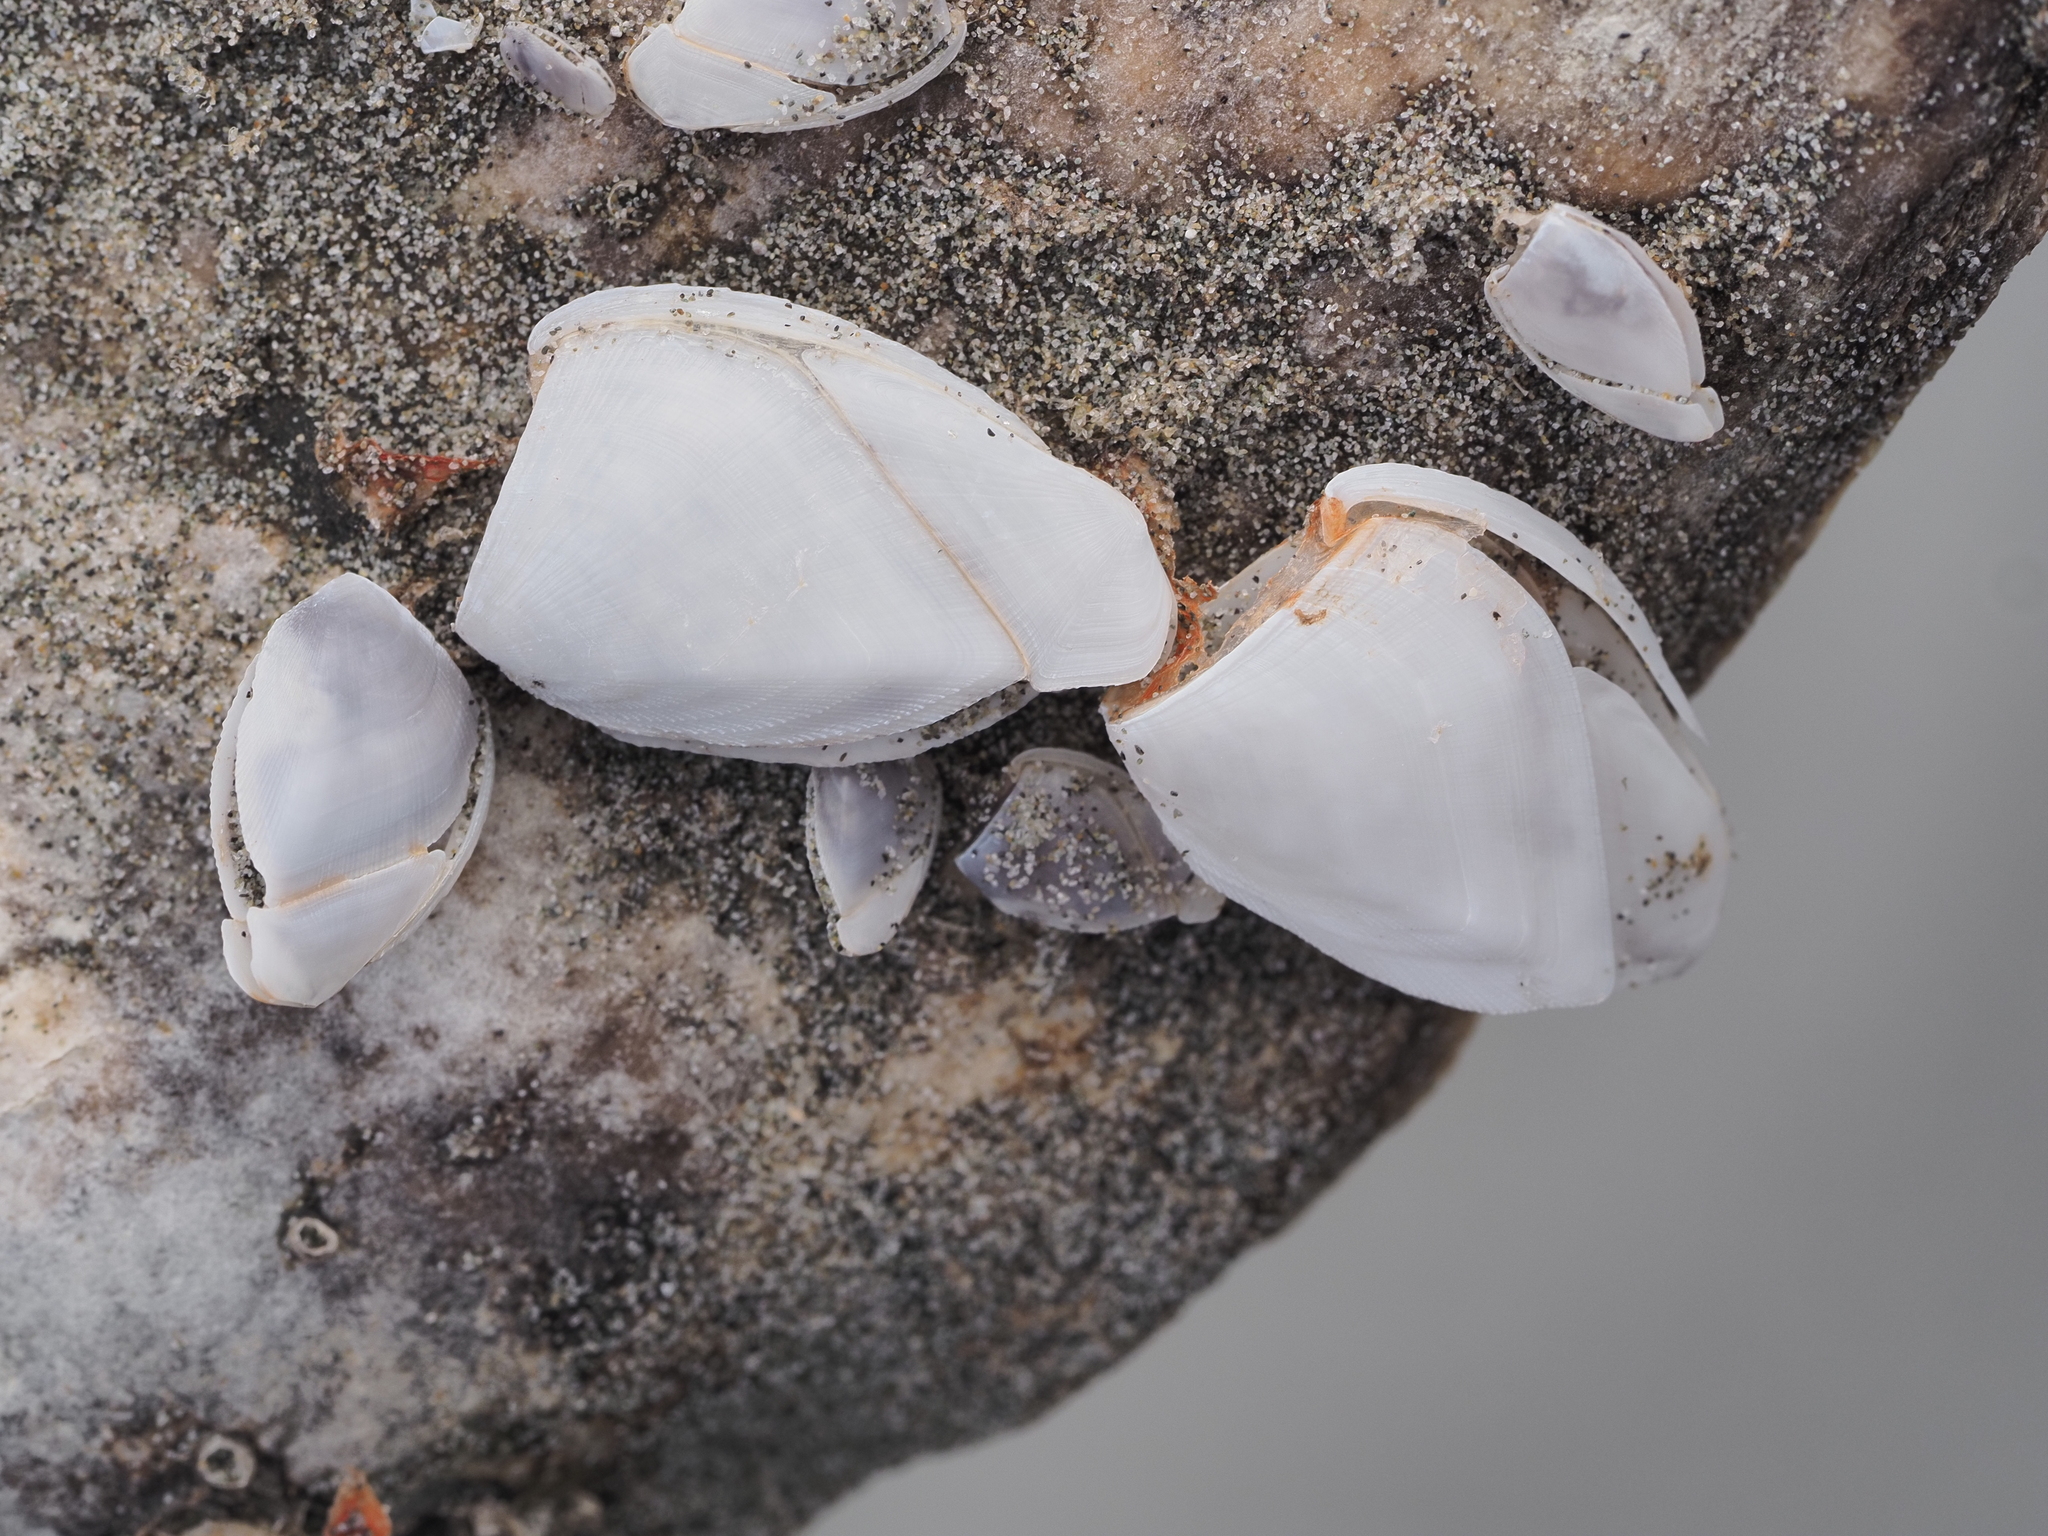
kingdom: Animalia
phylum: Arthropoda
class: Maxillopoda
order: Pedunculata
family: Lepadidae
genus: Lepas
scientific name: Lepas anatifera
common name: Common goose barnacle
